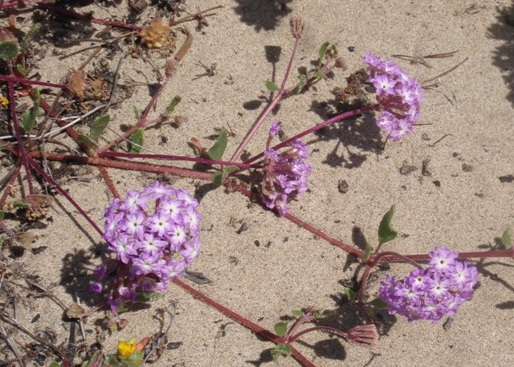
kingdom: Plantae
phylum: Tracheophyta
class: Magnoliopsida
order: Caryophyllales
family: Nyctaginaceae
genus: Abronia
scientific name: Abronia umbellata
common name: Sand-verbena
